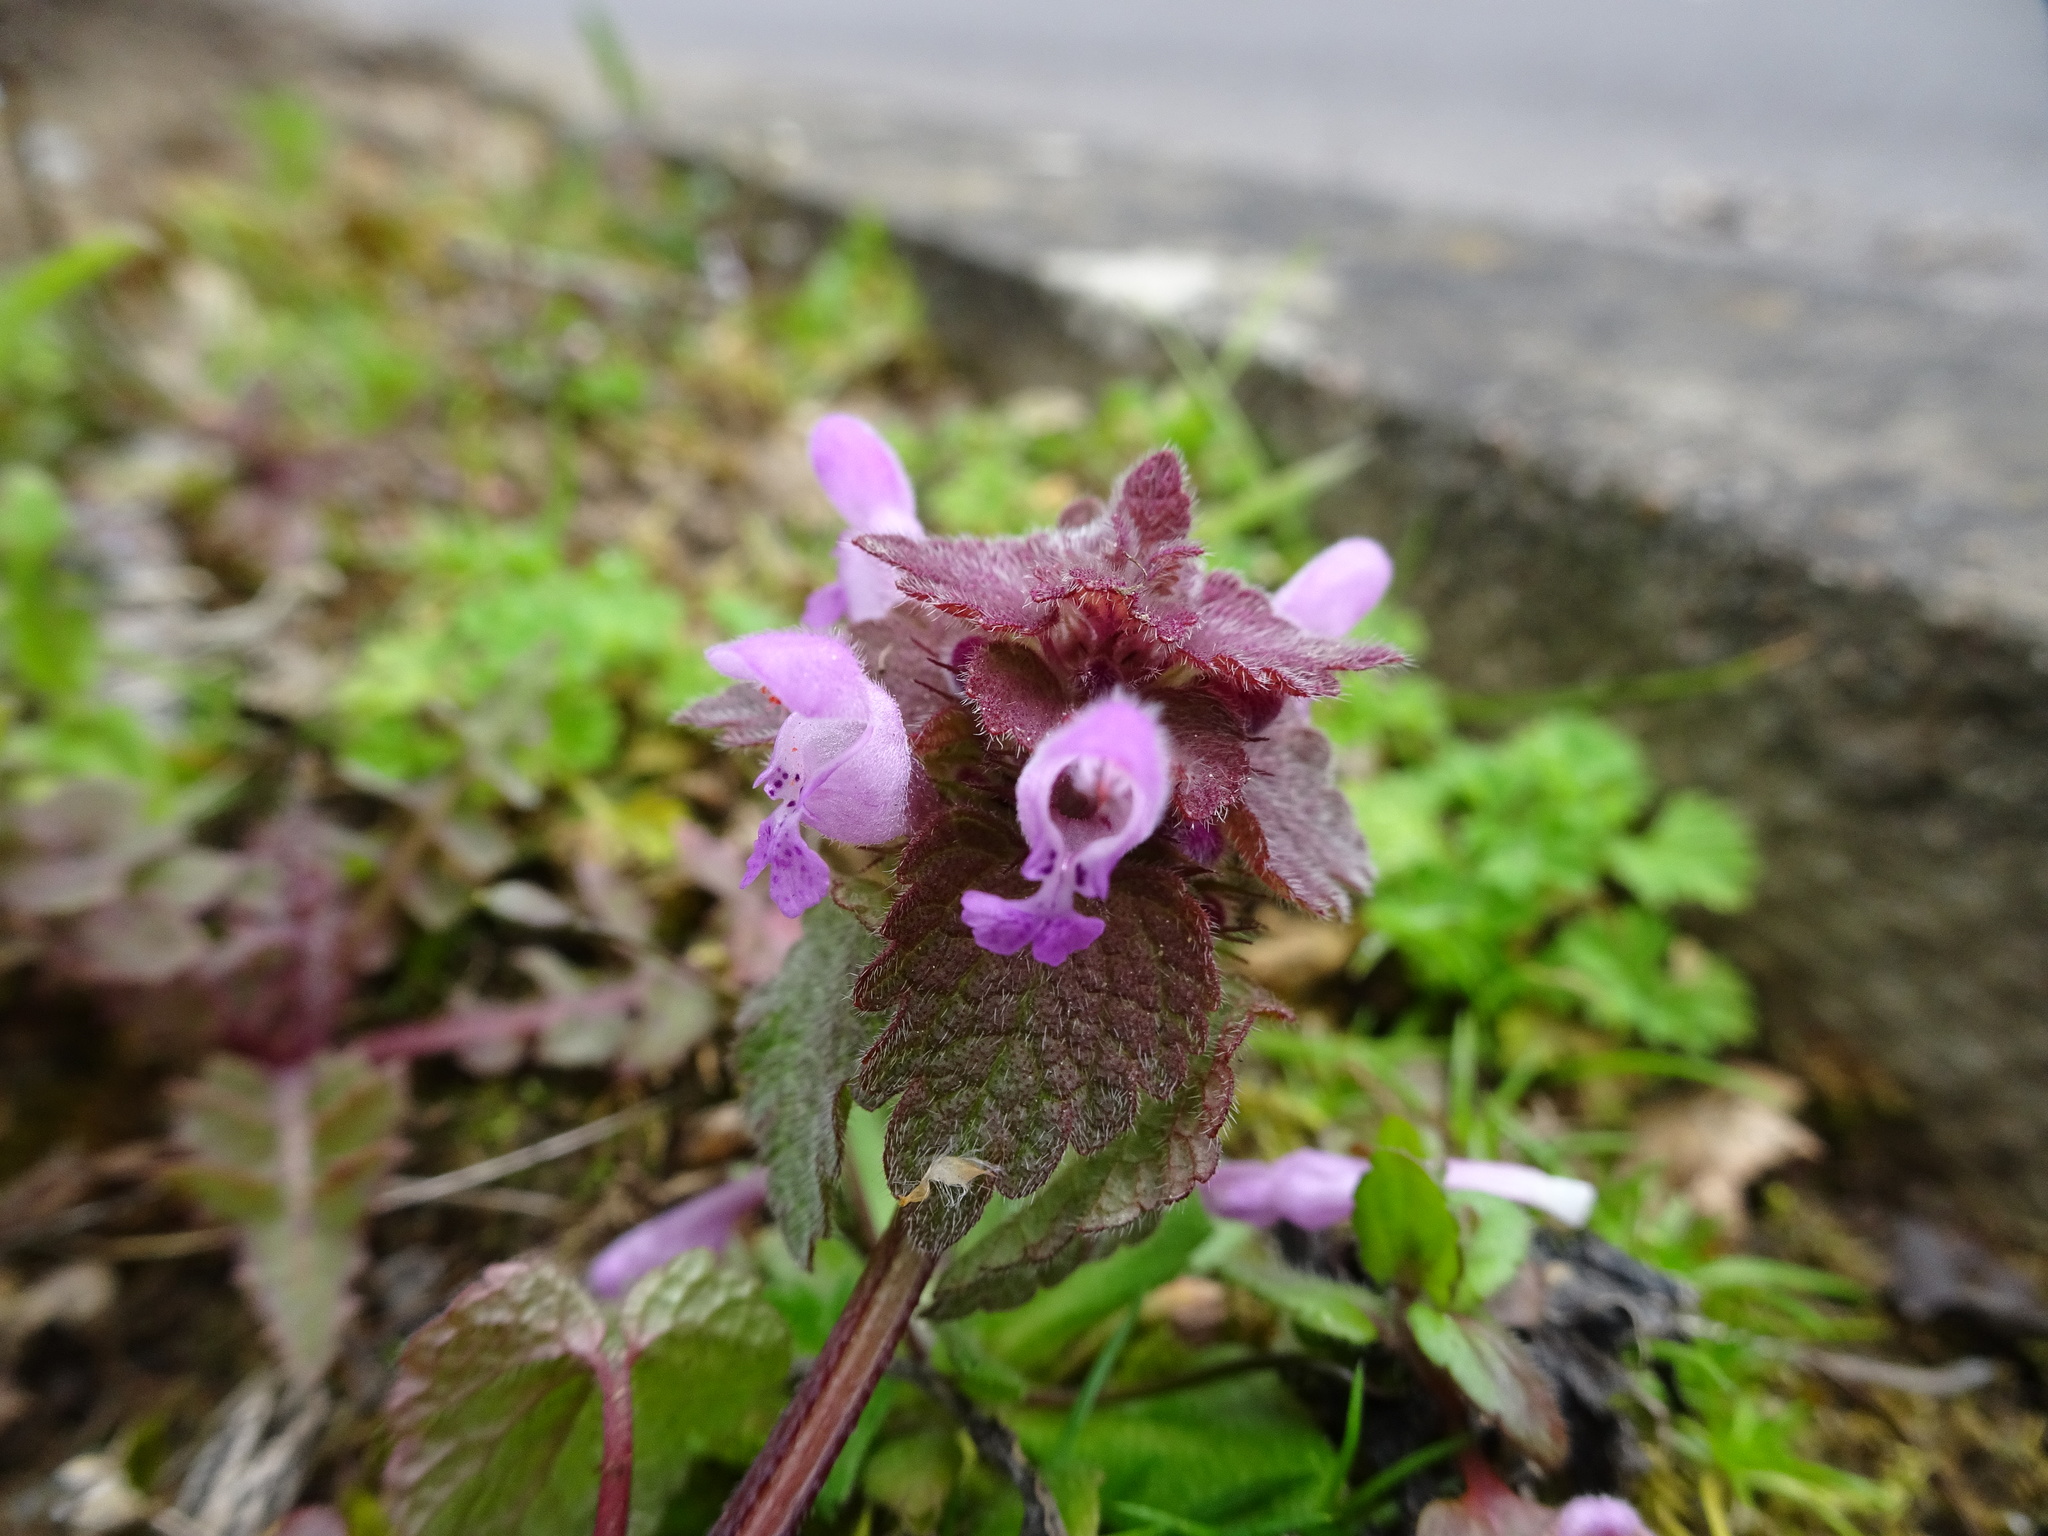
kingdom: Plantae
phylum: Tracheophyta
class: Magnoliopsida
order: Lamiales
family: Lamiaceae
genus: Lamium
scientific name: Lamium purpureum
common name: Red dead-nettle
